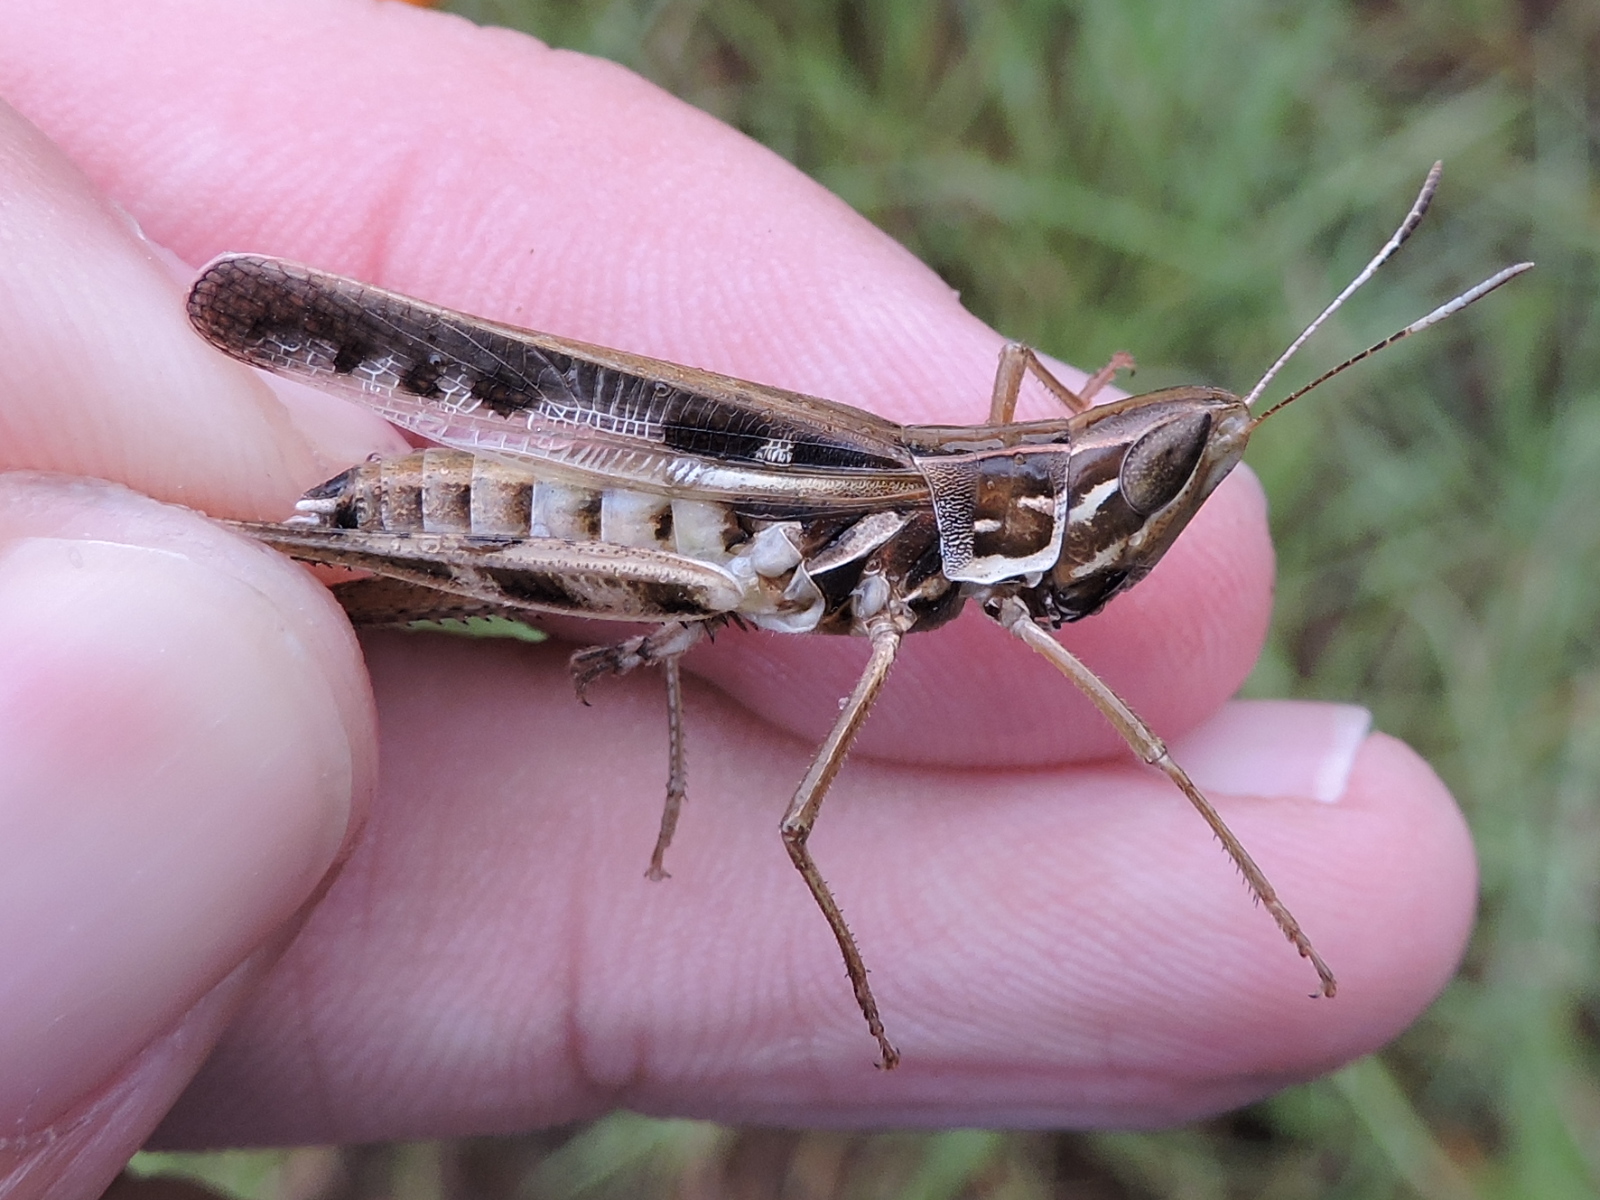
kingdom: Animalia
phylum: Arthropoda
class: Insecta
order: Orthoptera
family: Acrididae
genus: Syrbula
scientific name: Syrbula admirabilis
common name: Handsome grasshopper
